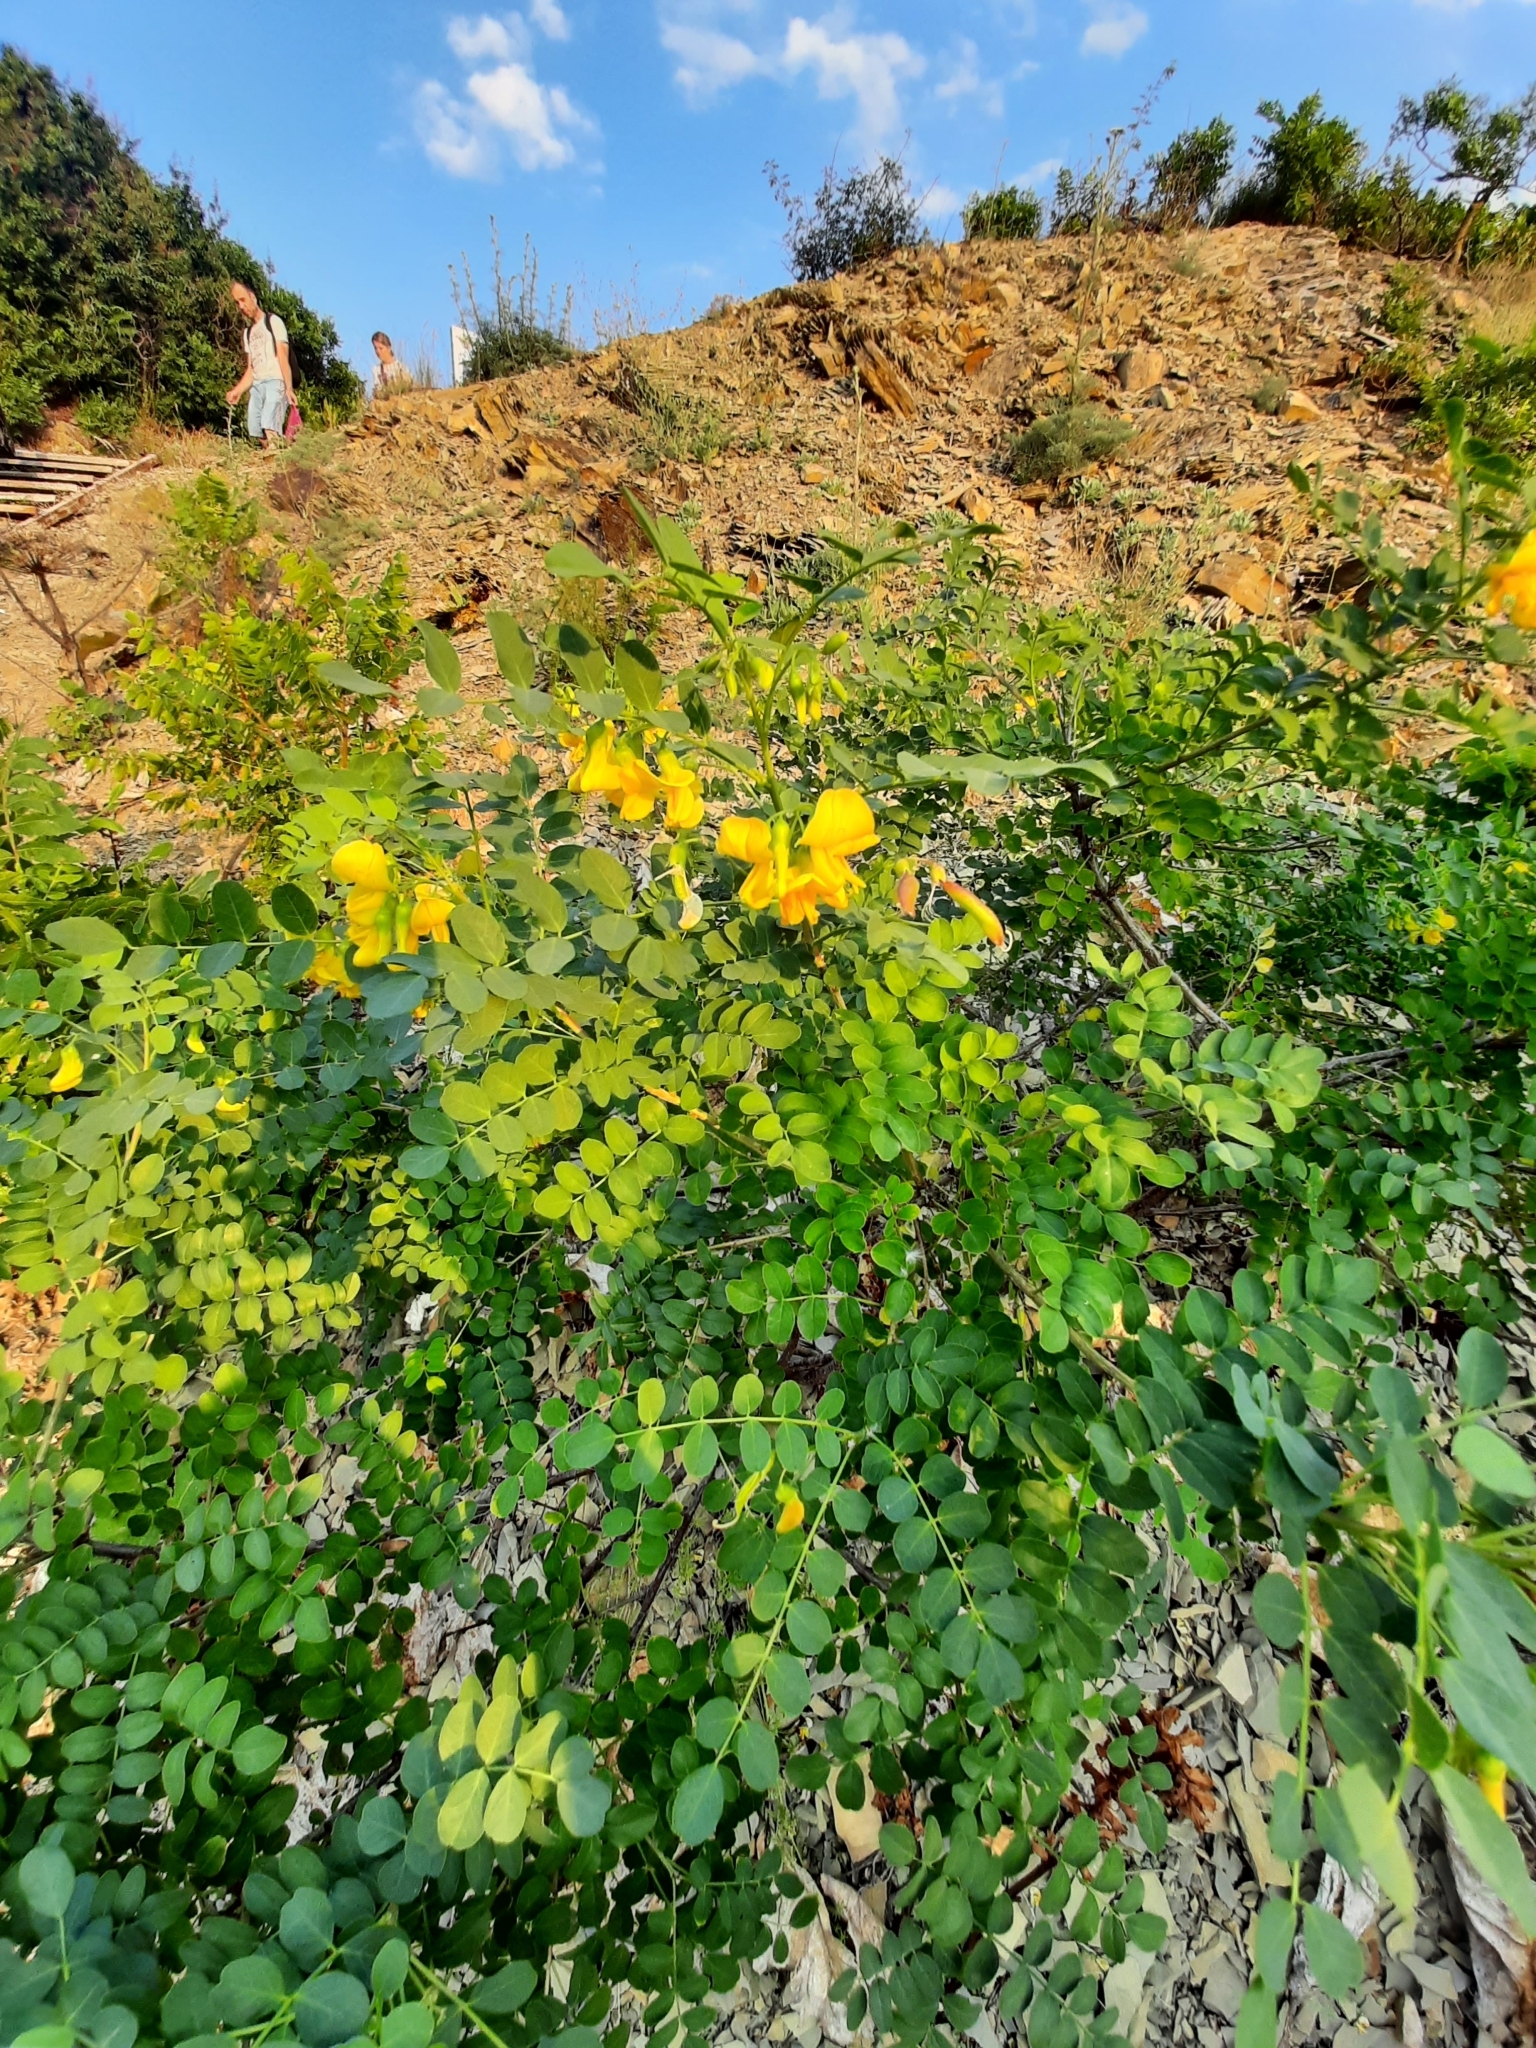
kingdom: Plantae
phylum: Tracheophyta
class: Magnoliopsida
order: Fabales
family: Fabaceae
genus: Colutea
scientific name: Colutea cilicica
